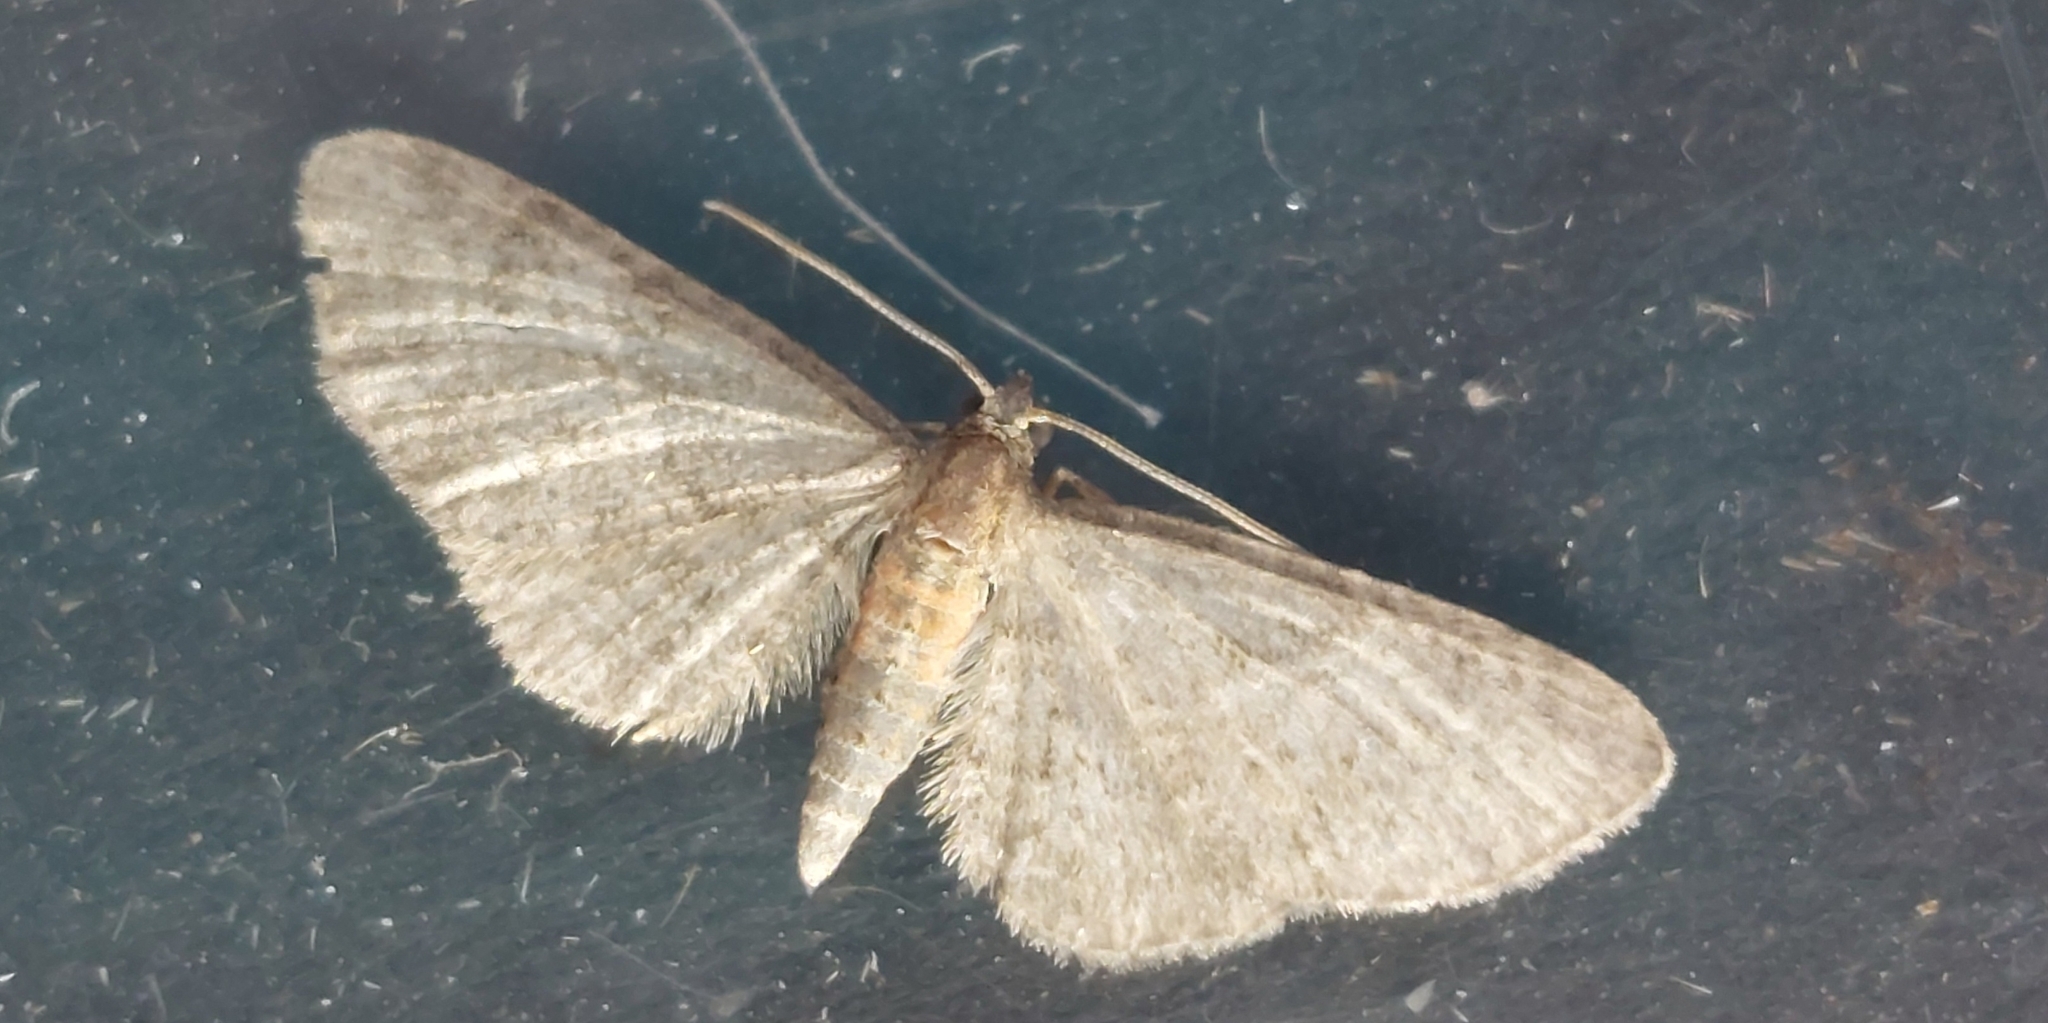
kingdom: Animalia
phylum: Arthropoda
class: Insecta
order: Lepidoptera
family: Geometridae
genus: Eupithecia
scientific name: Eupithecia haworthiata
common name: Haworth's pug
